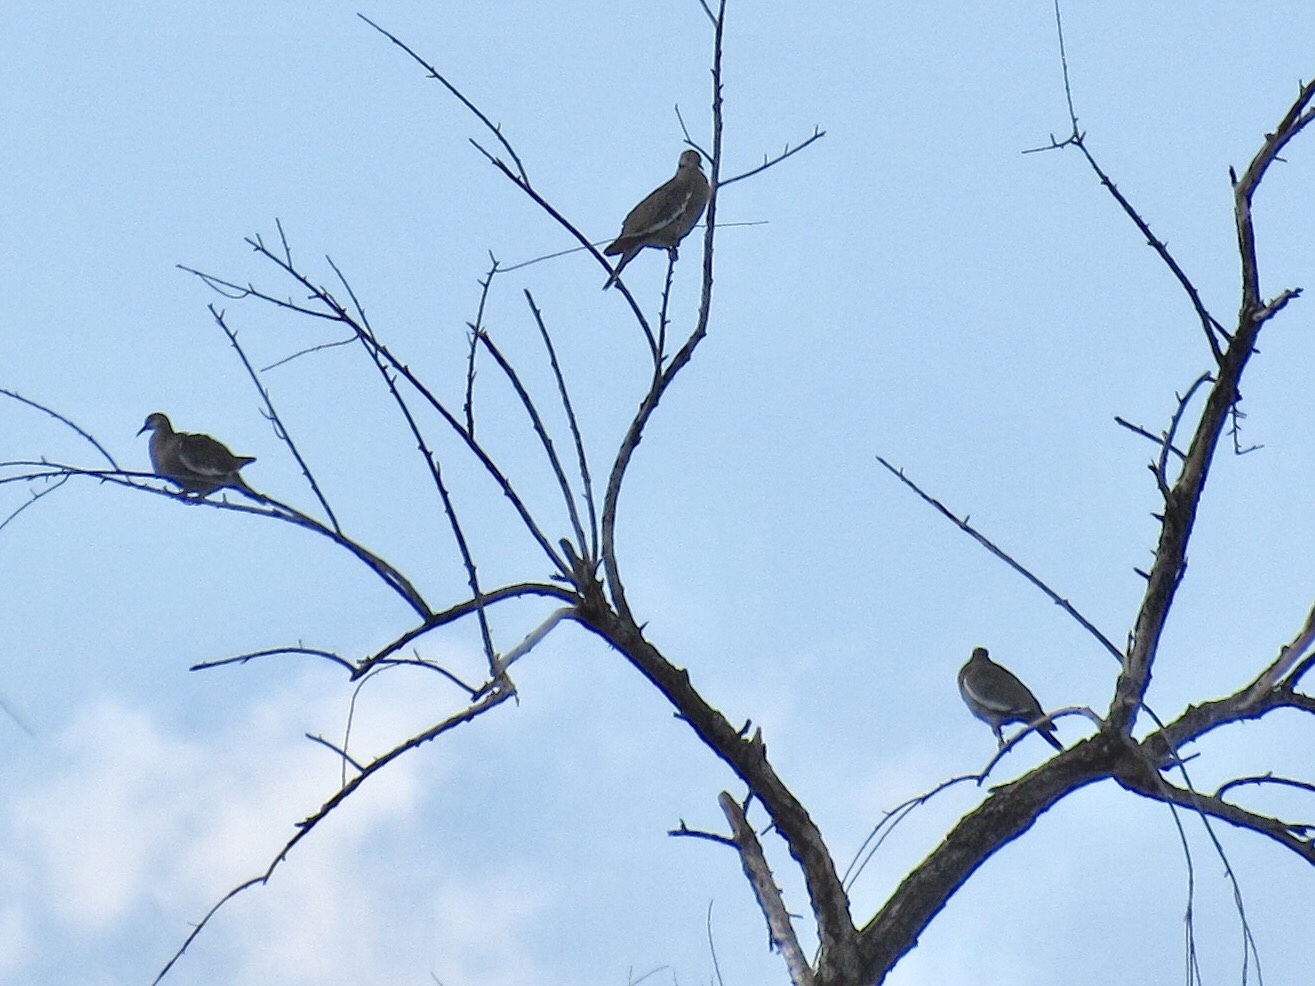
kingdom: Animalia
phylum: Chordata
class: Aves
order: Columbiformes
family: Columbidae
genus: Zenaida
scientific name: Zenaida asiatica
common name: White-winged dove
